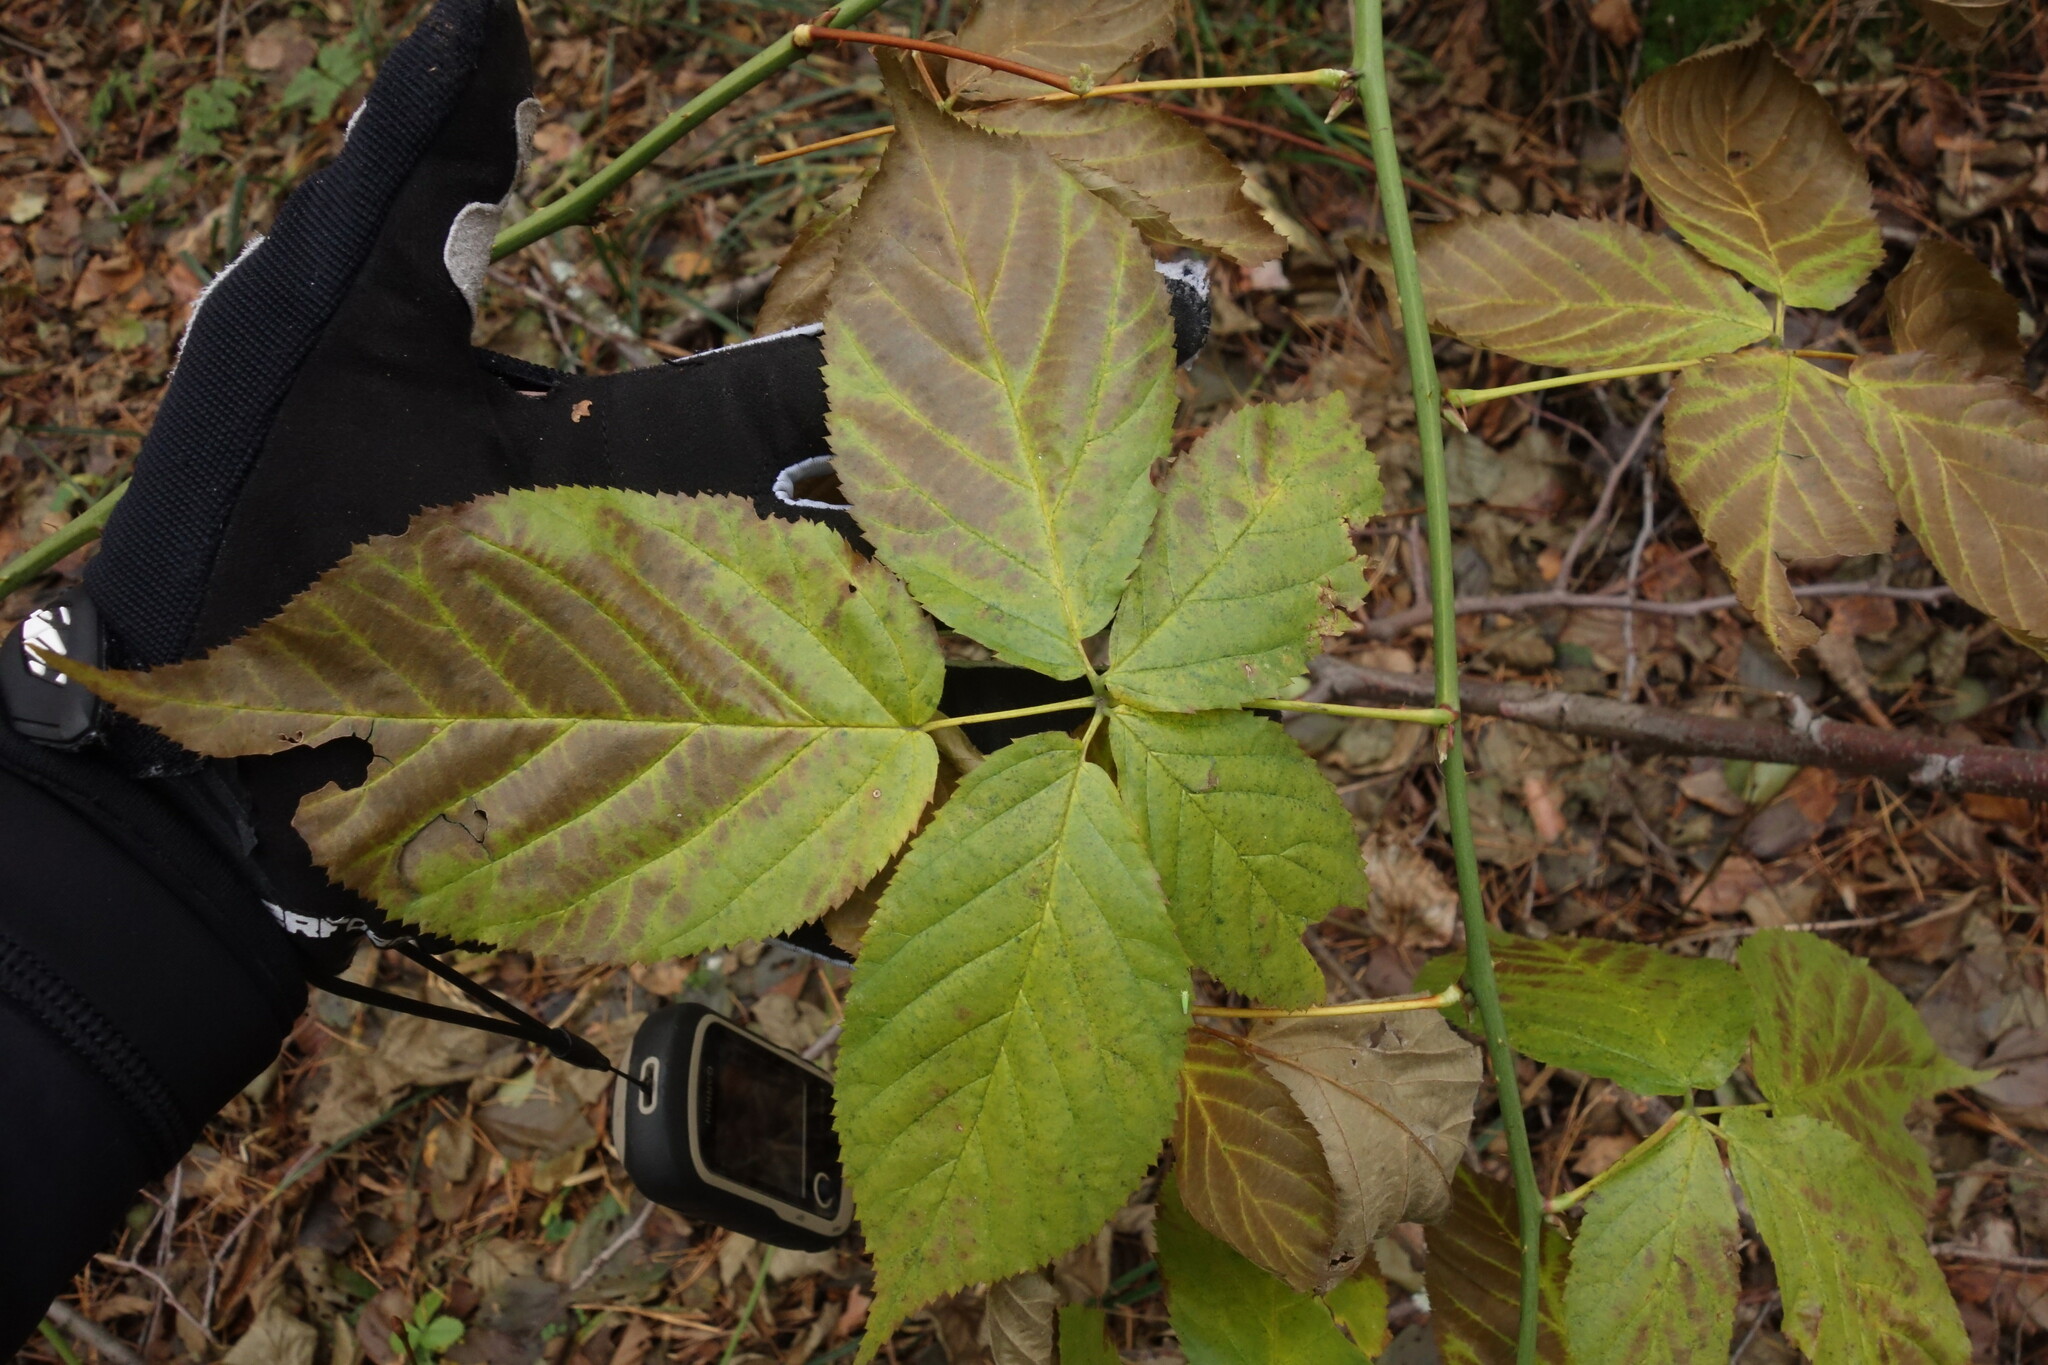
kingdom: Plantae
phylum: Tracheophyta
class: Magnoliopsida
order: Rosales
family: Rosaceae
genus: Rubus
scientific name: Rubus polonicus
